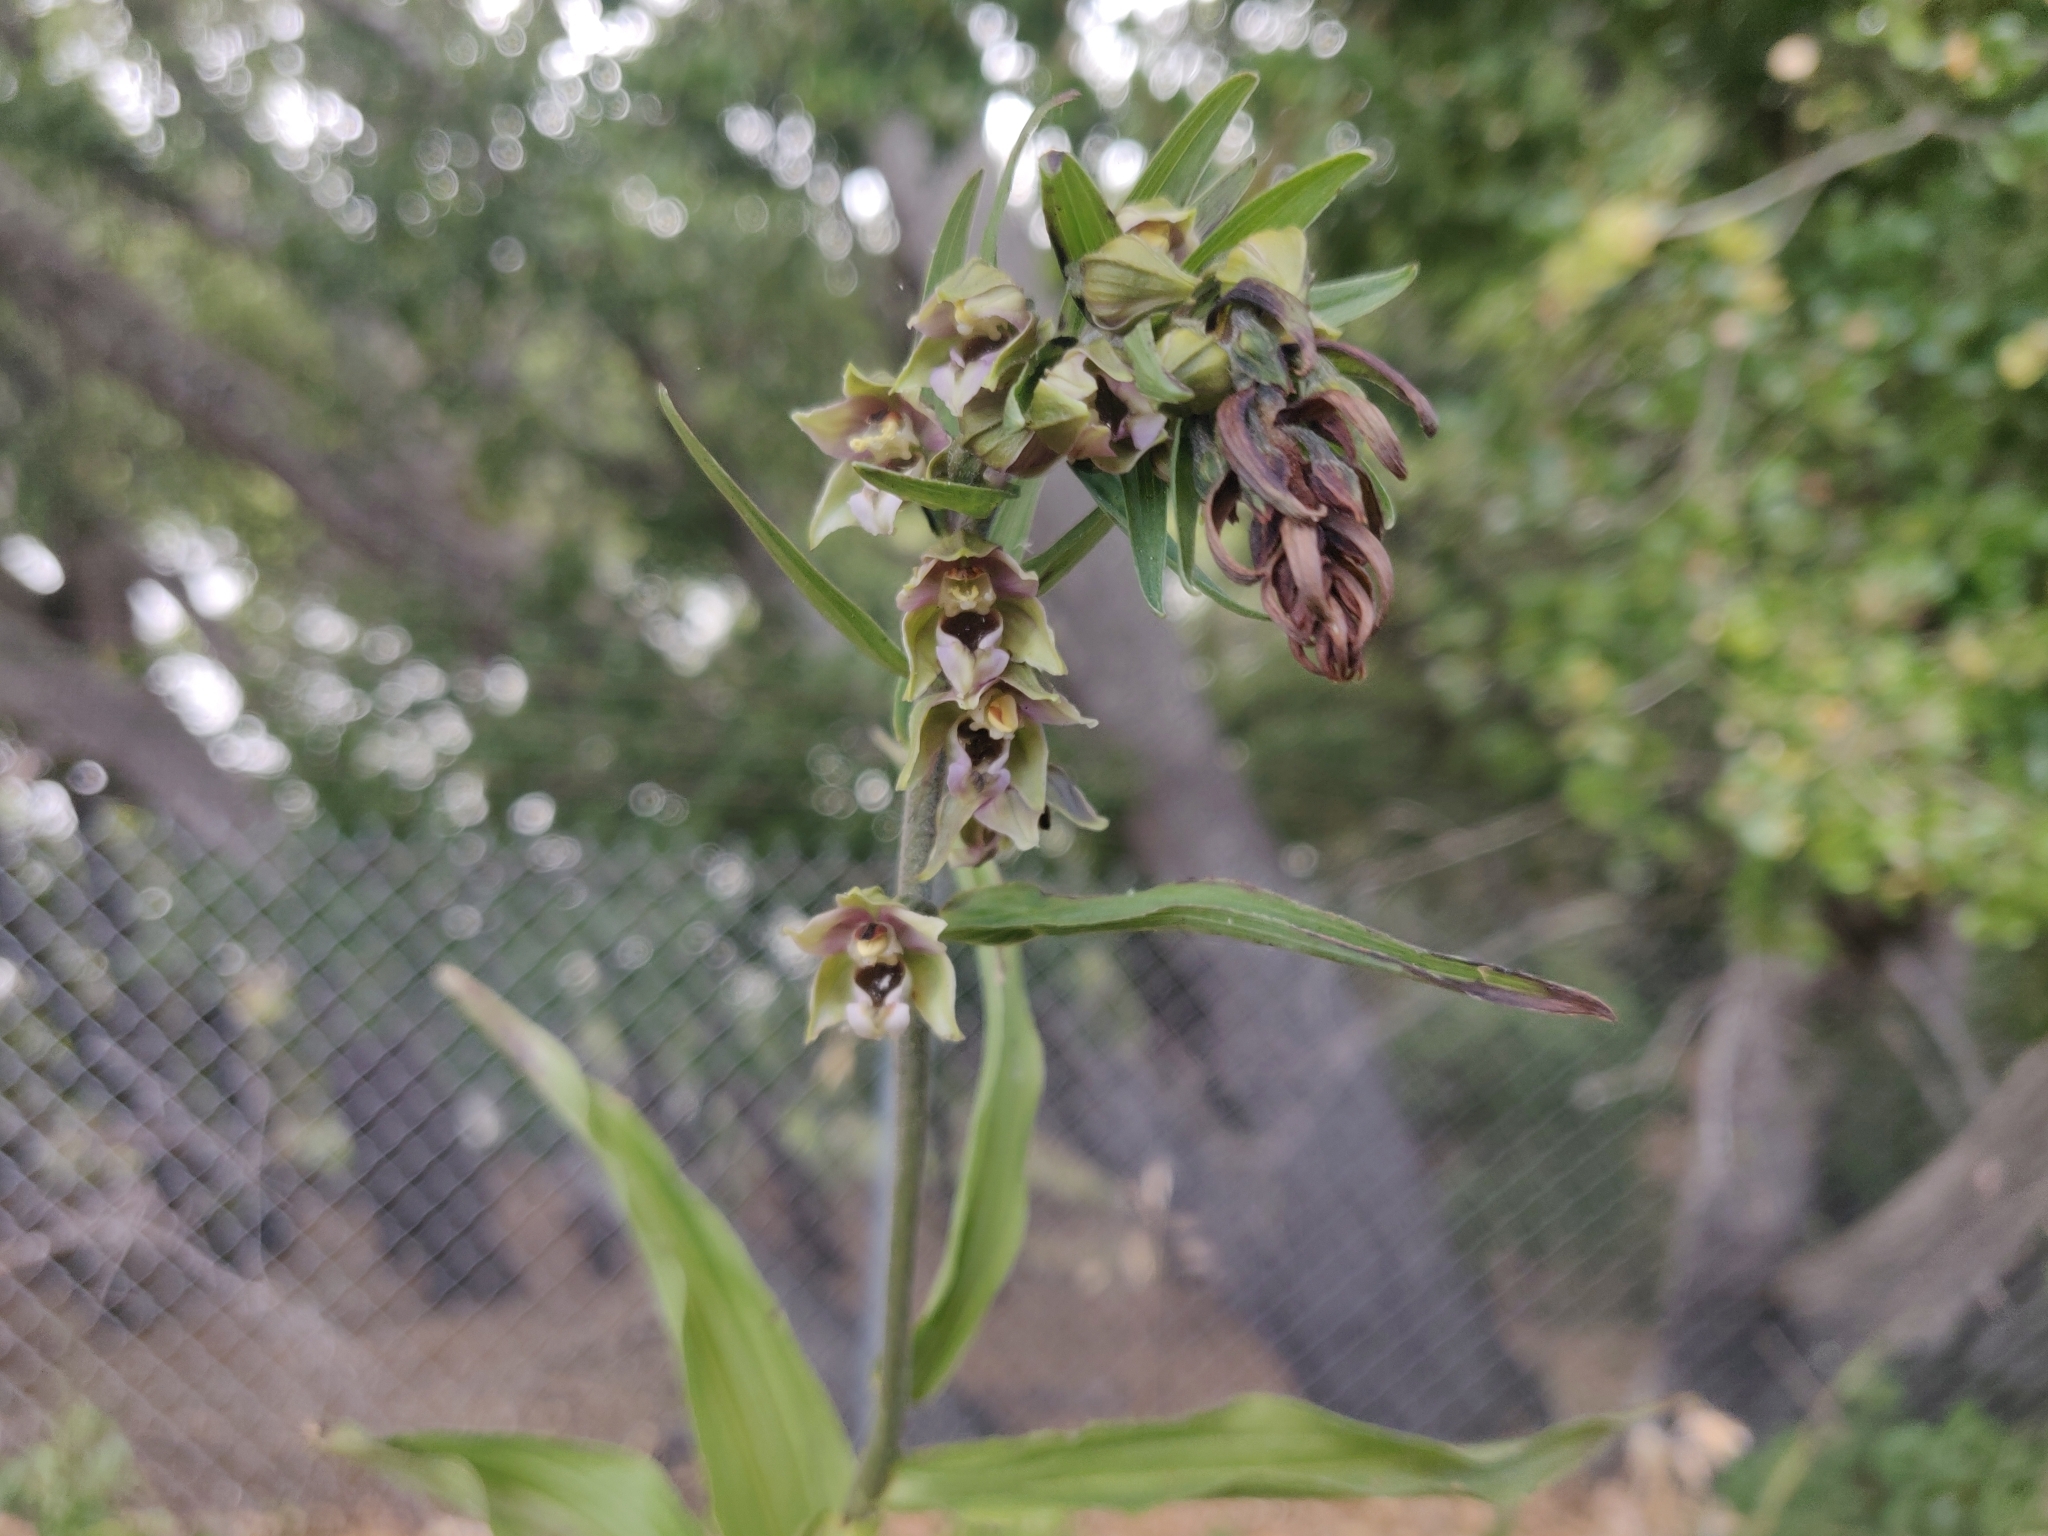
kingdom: Plantae
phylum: Tracheophyta
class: Liliopsida
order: Asparagales
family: Orchidaceae
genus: Epipactis
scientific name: Epipactis helleborine
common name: Broad-leaved helleborine
